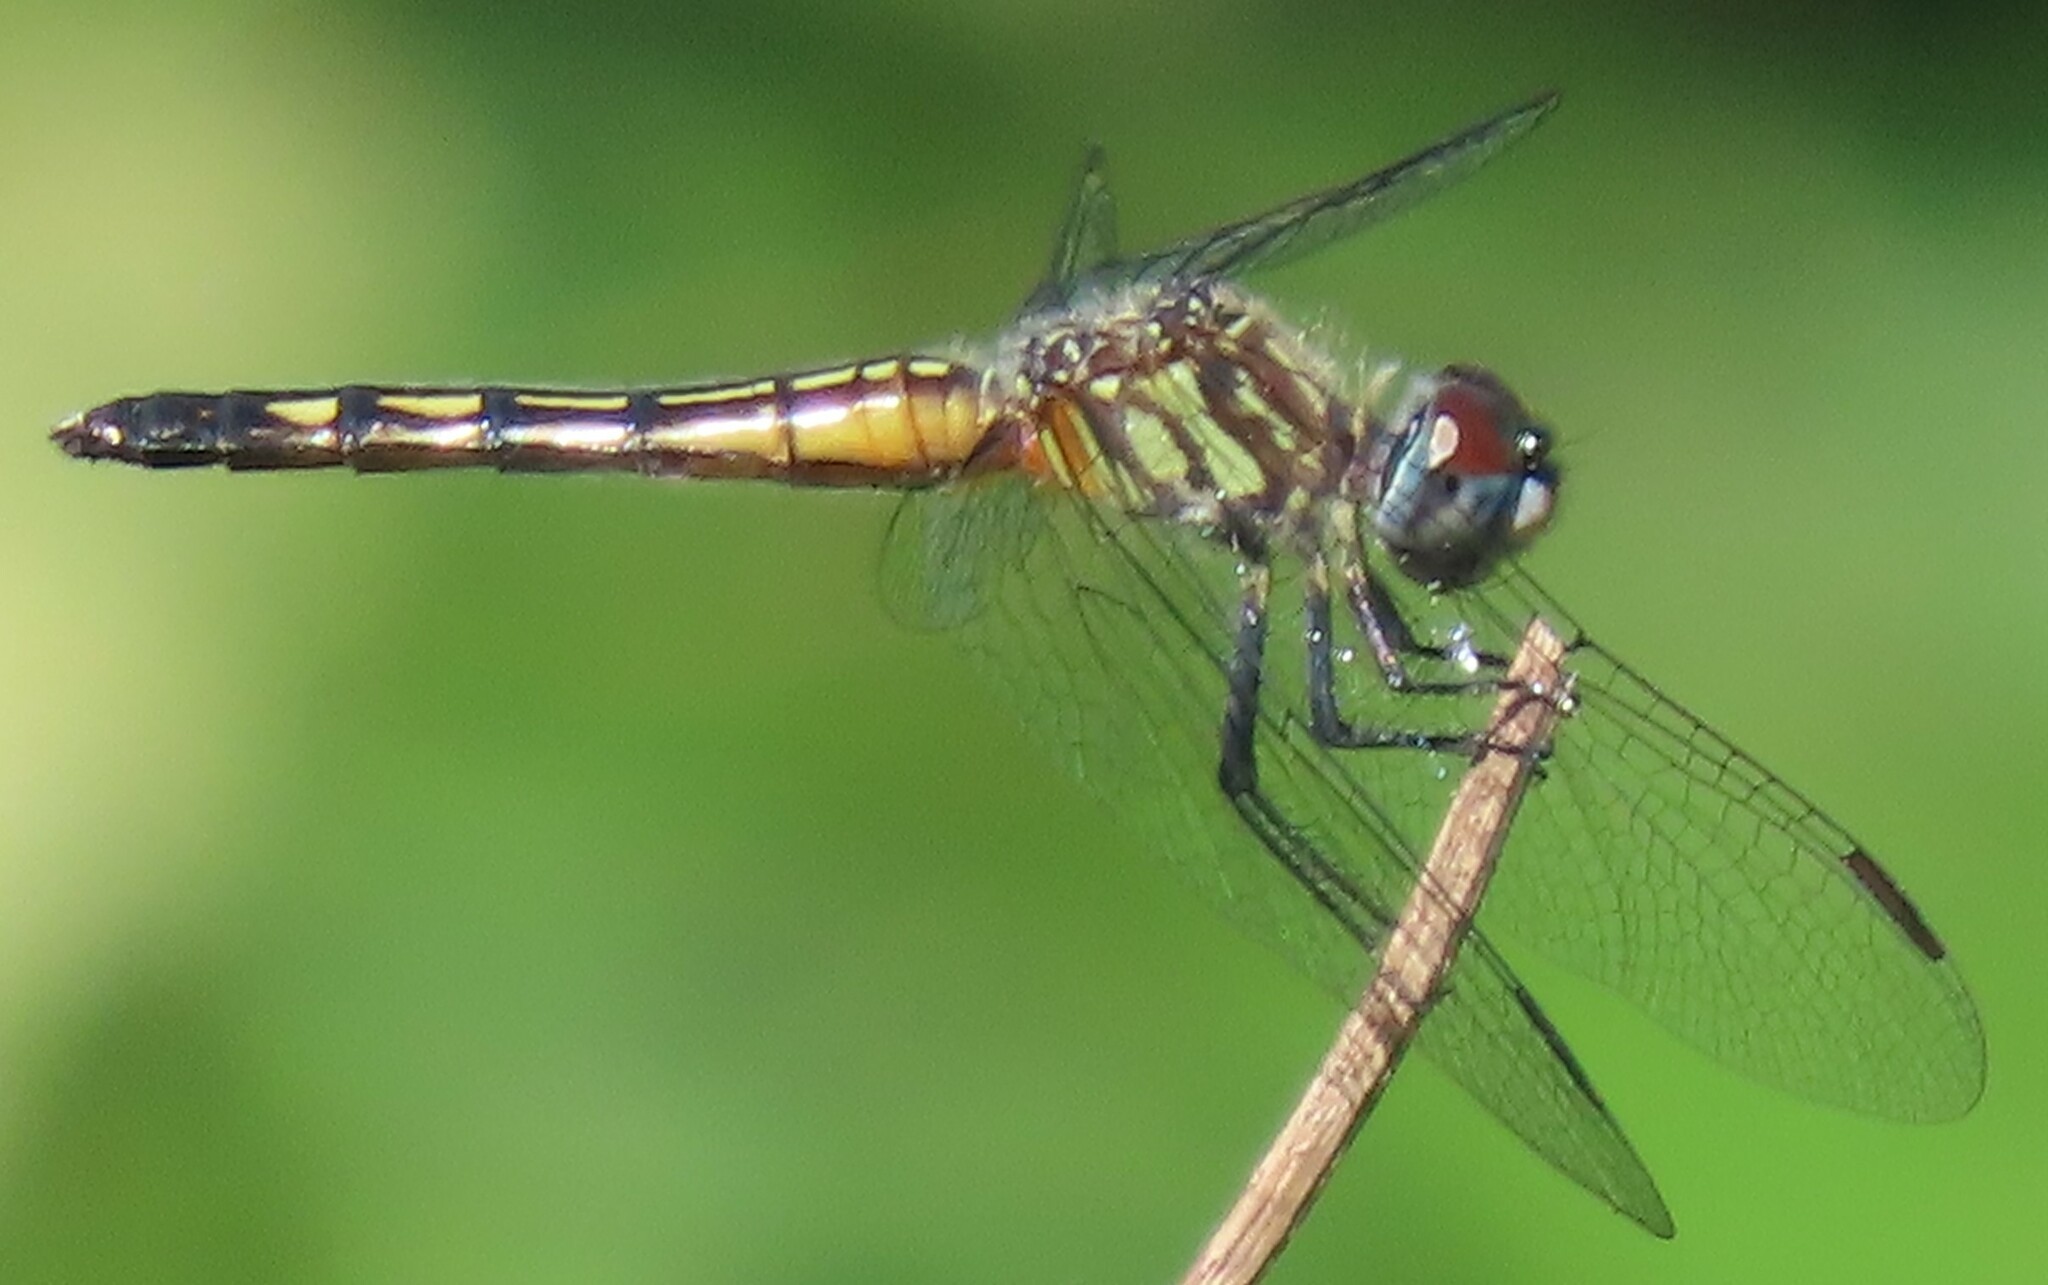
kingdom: Animalia
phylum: Arthropoda
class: Insecta
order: Odonata
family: Libellulidae
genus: Pachydiplax
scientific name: Pachydiplax longipennis
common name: Blue dasher
